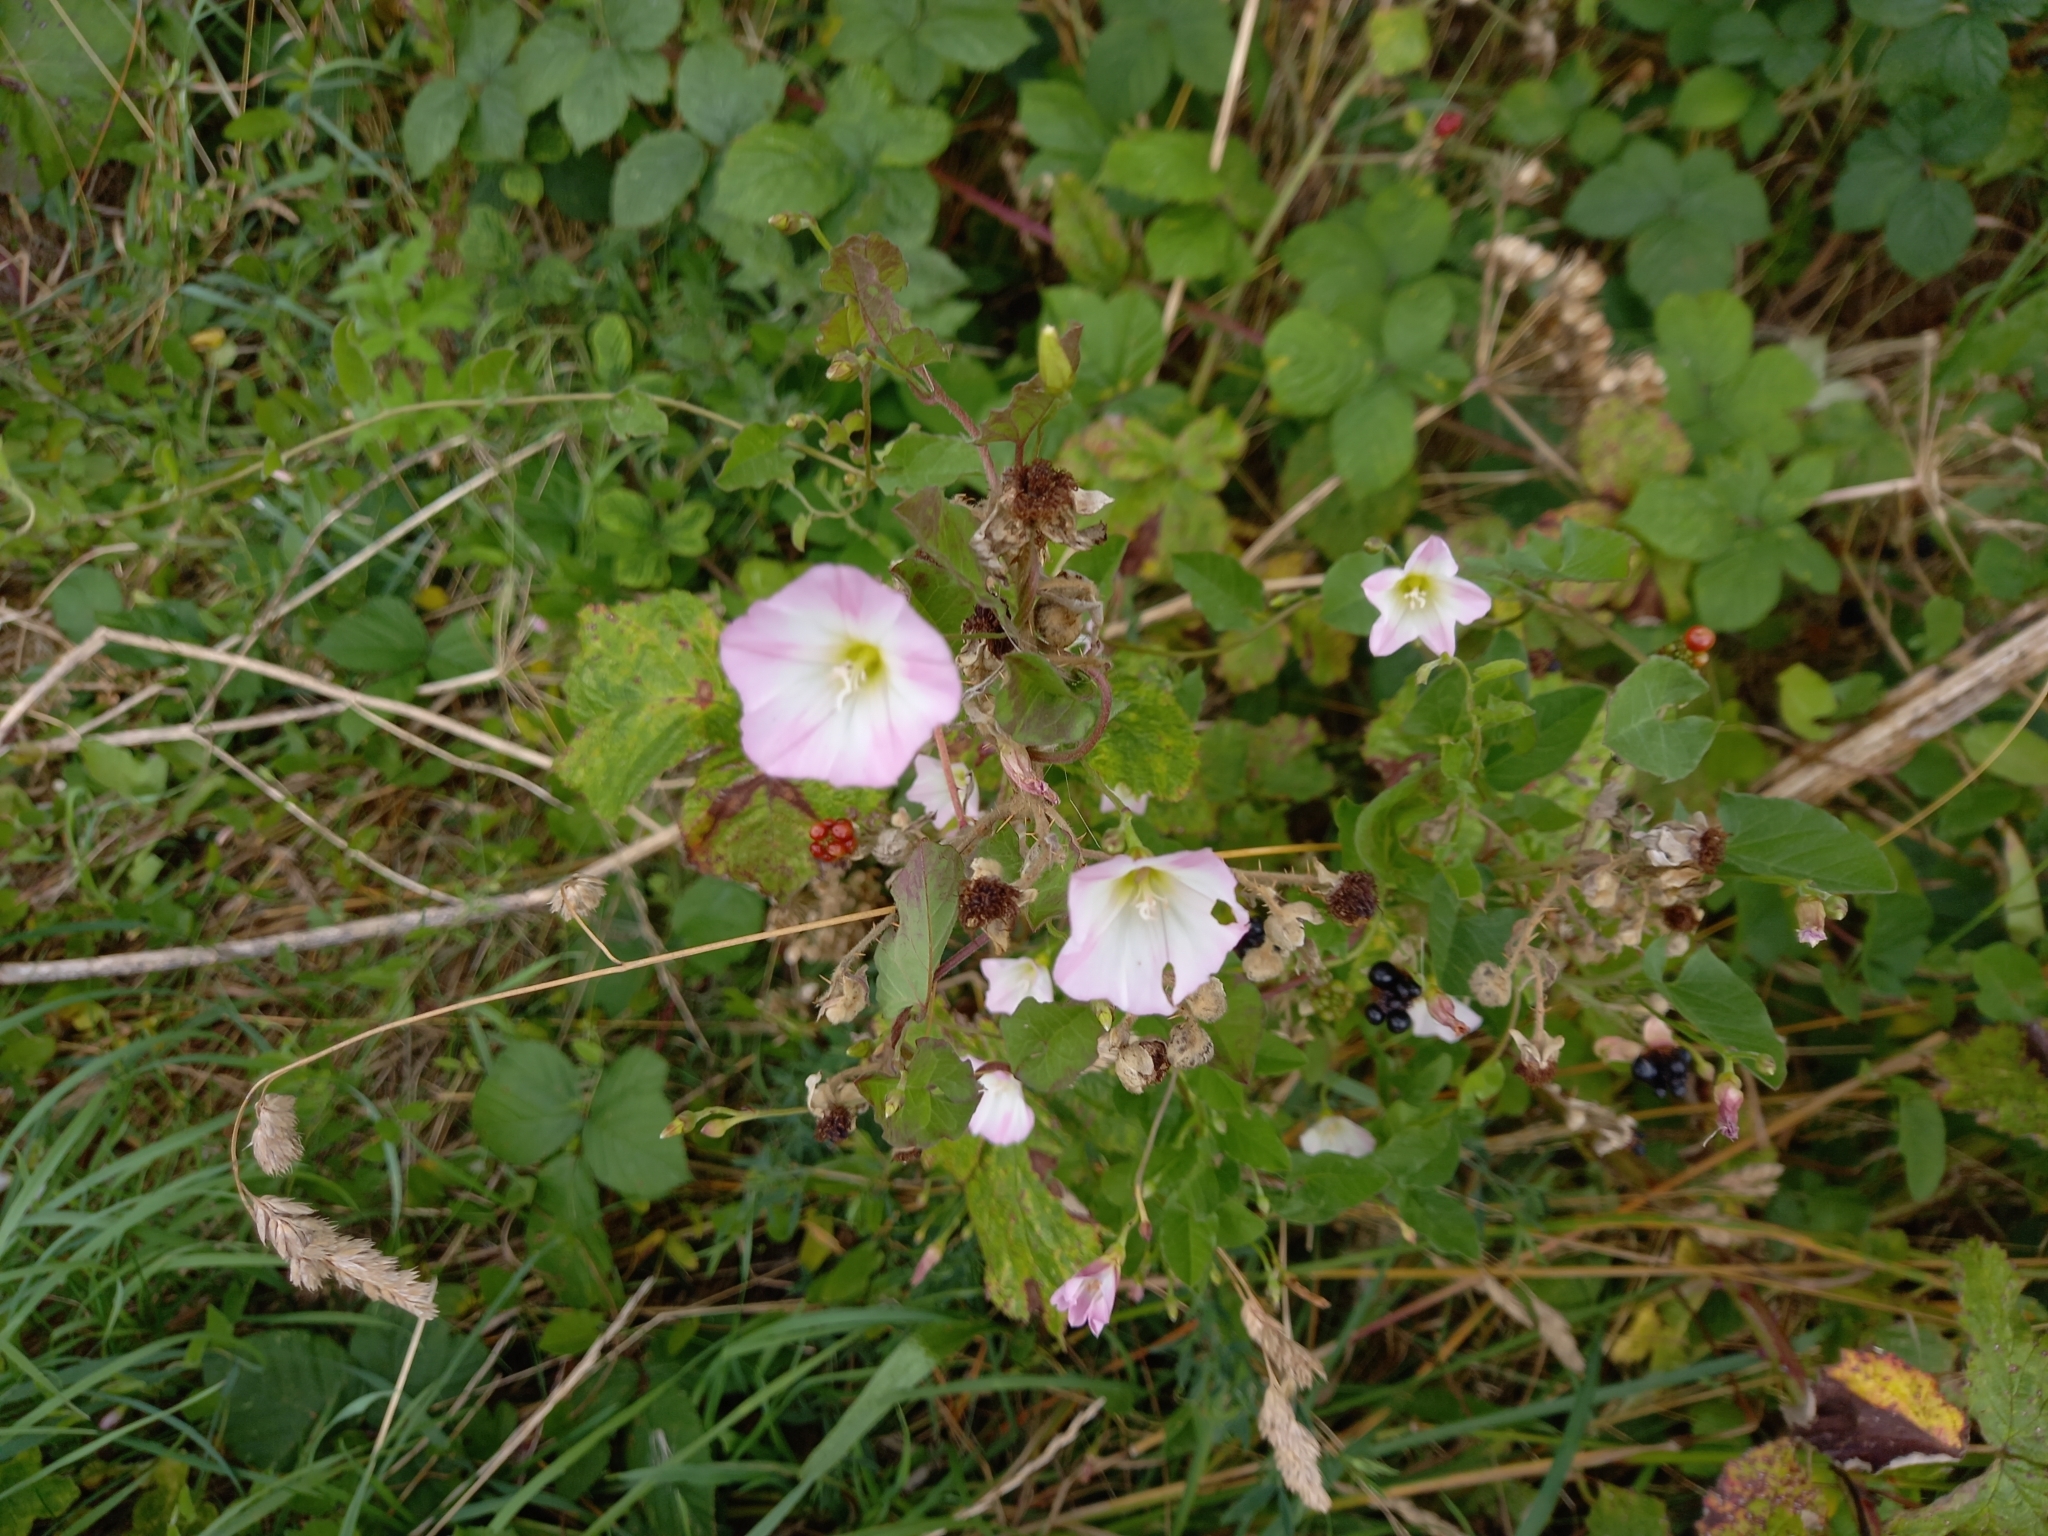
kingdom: Plantae
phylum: Tracheophyta
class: Magnoliopsida
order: Solanales
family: Convolvulaceae
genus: Convolvulus
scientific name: Convolvulus arvensis
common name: Field bindweed
